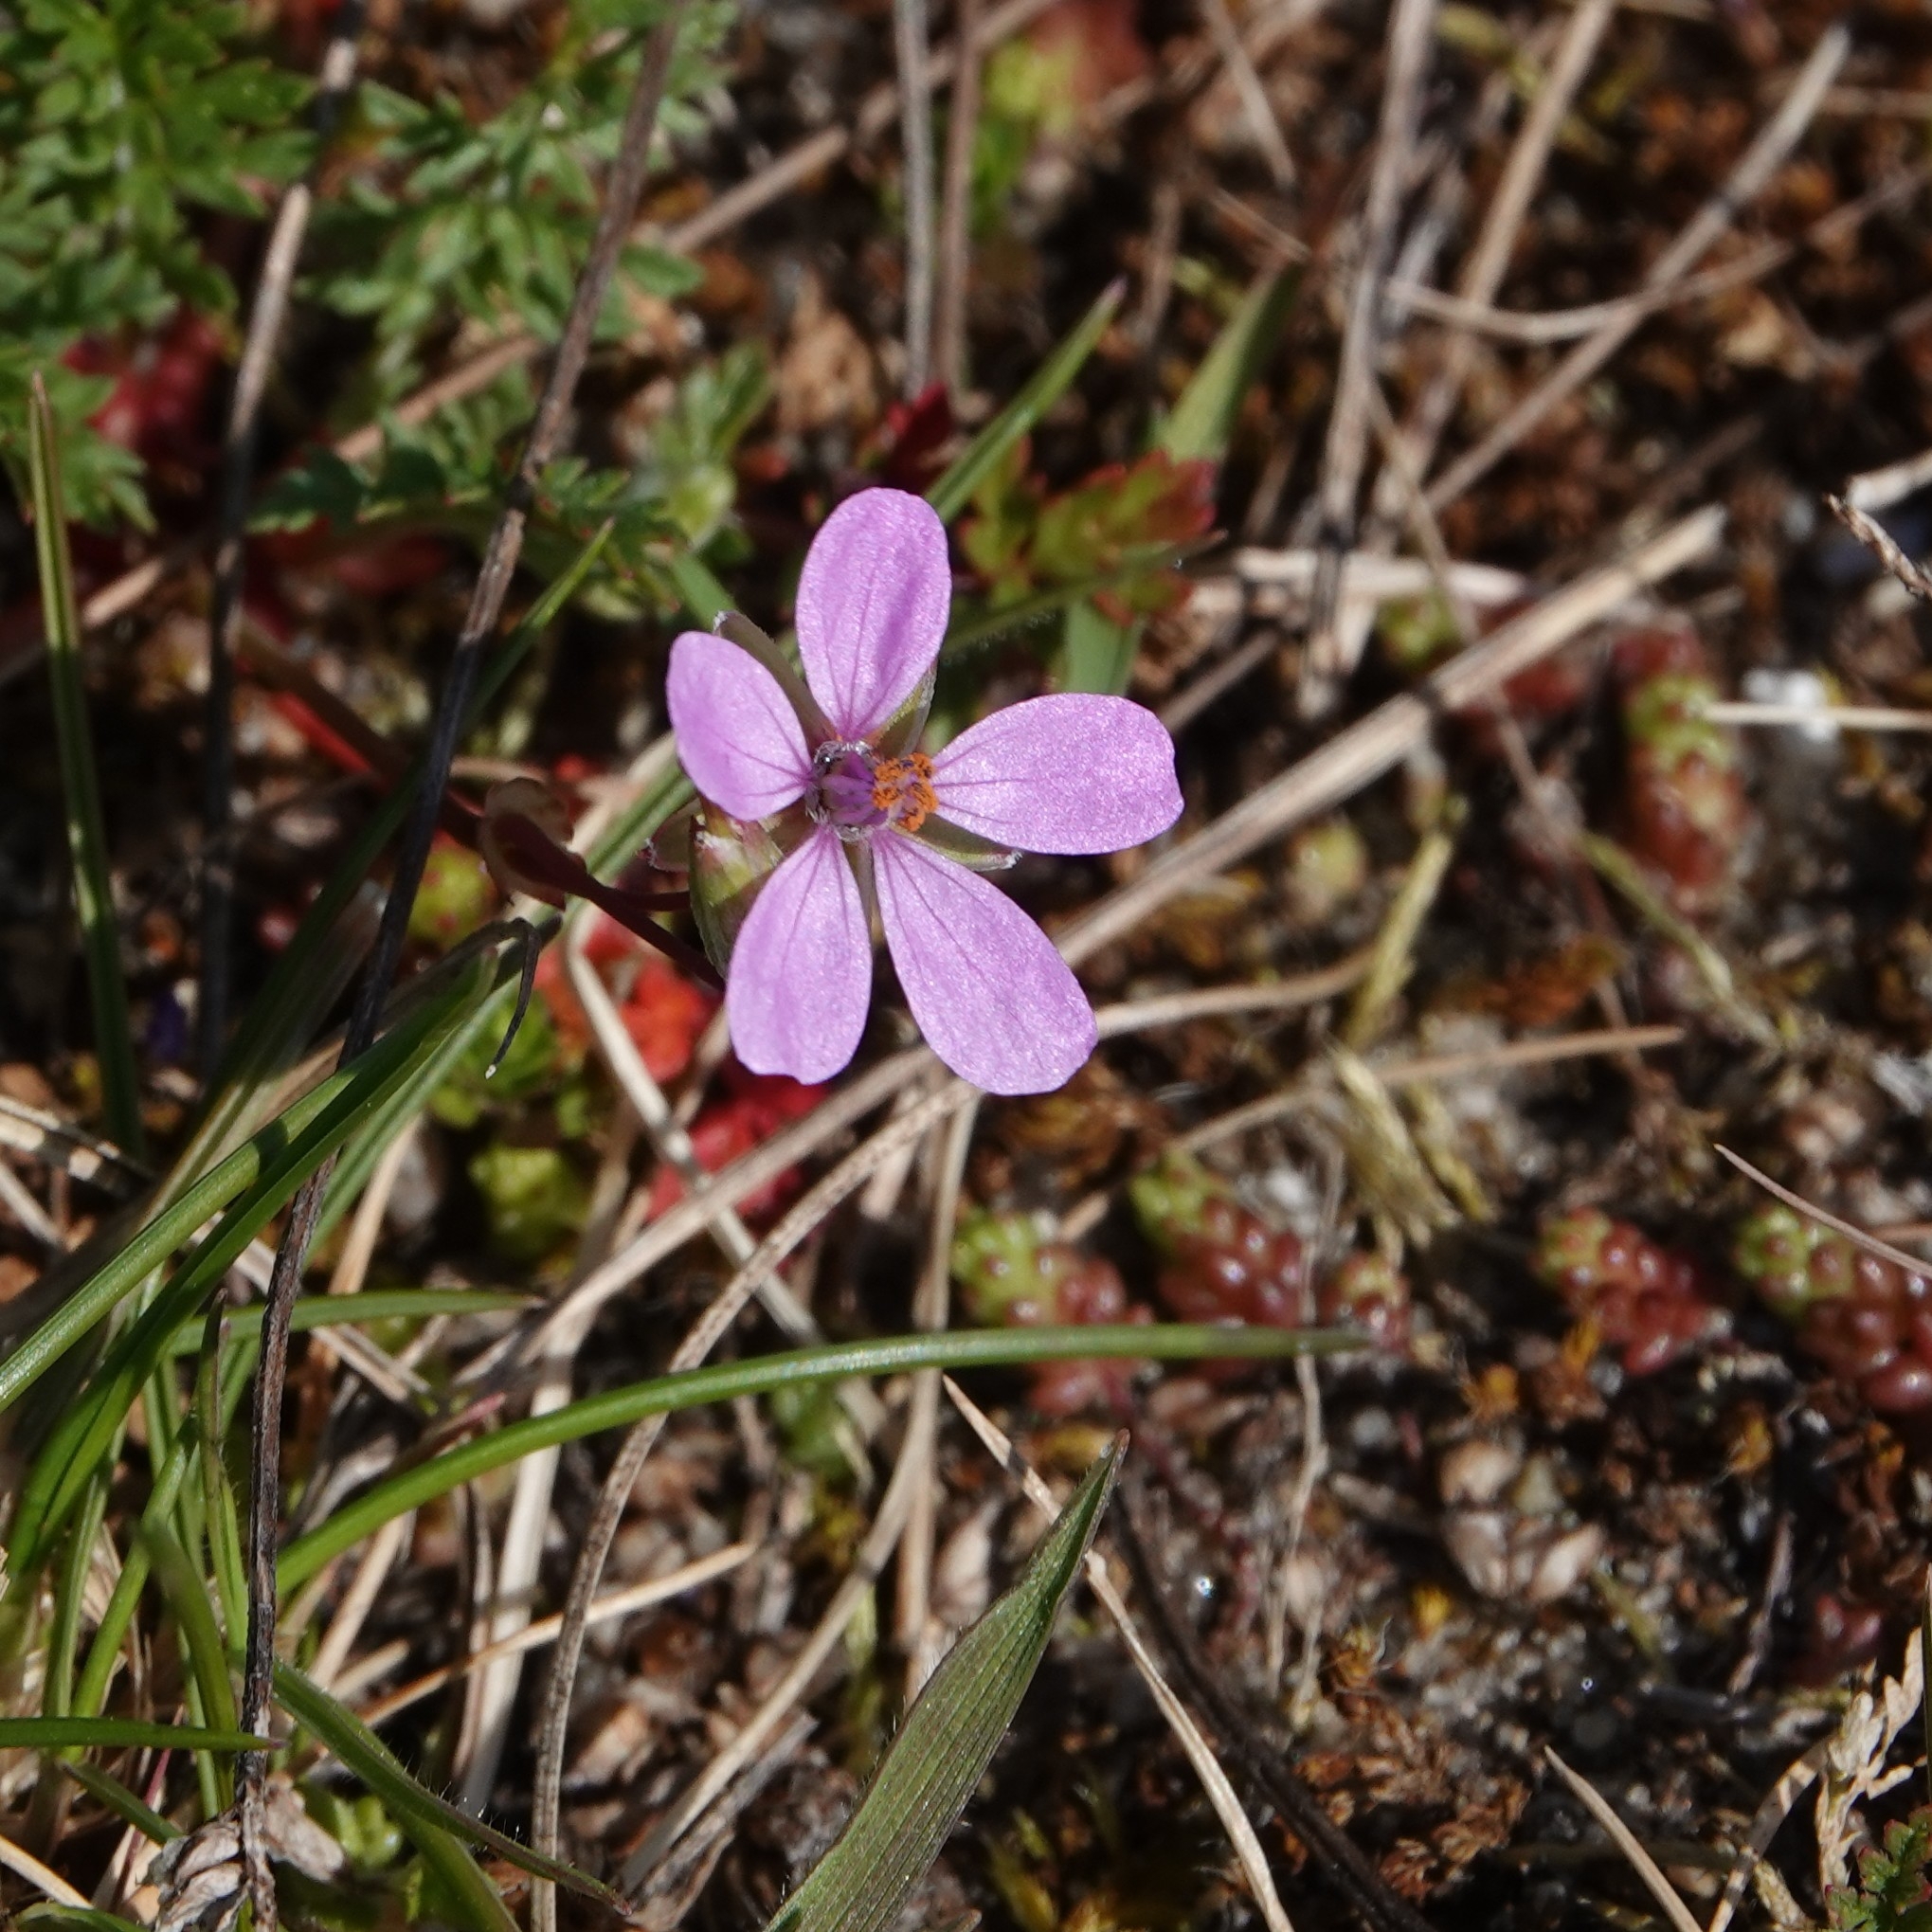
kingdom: Plantae
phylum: Tracheophyta
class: Magnoliopsida
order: Geraniales
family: Geraniaceae
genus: Erodium
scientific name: Erodium cicutarium
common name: Common stork's-bill
